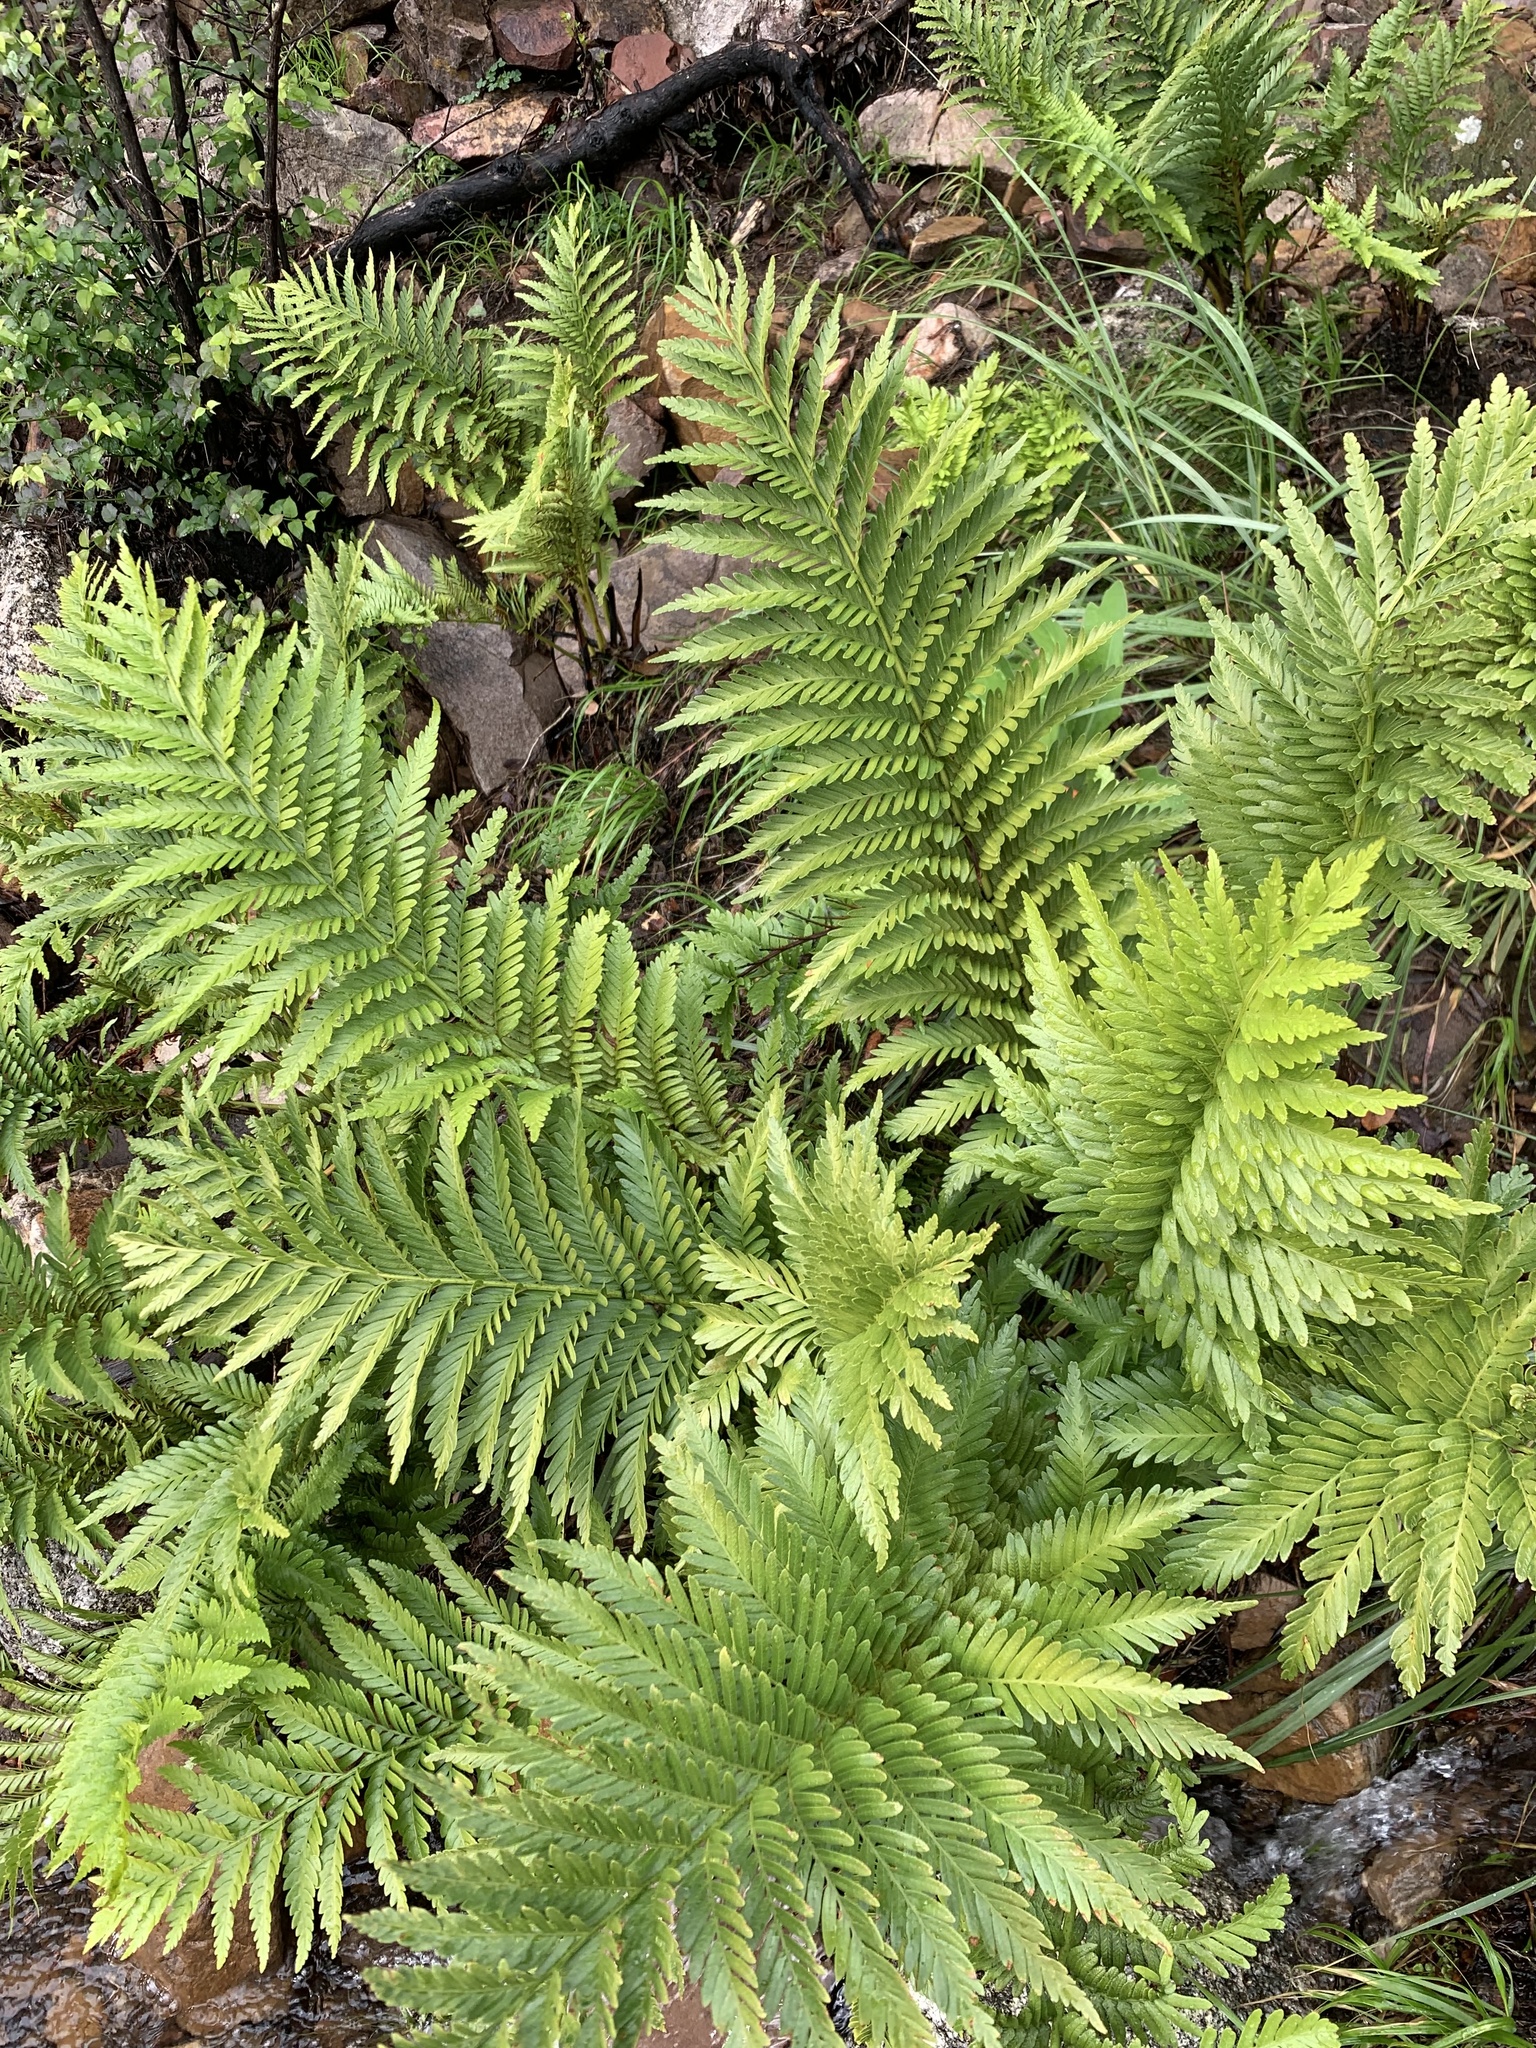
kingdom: Plantae
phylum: Tracheophyta
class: Polypodiopsida
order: Osmundales
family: Osmundaceae
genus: Todea
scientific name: Todea barbara
